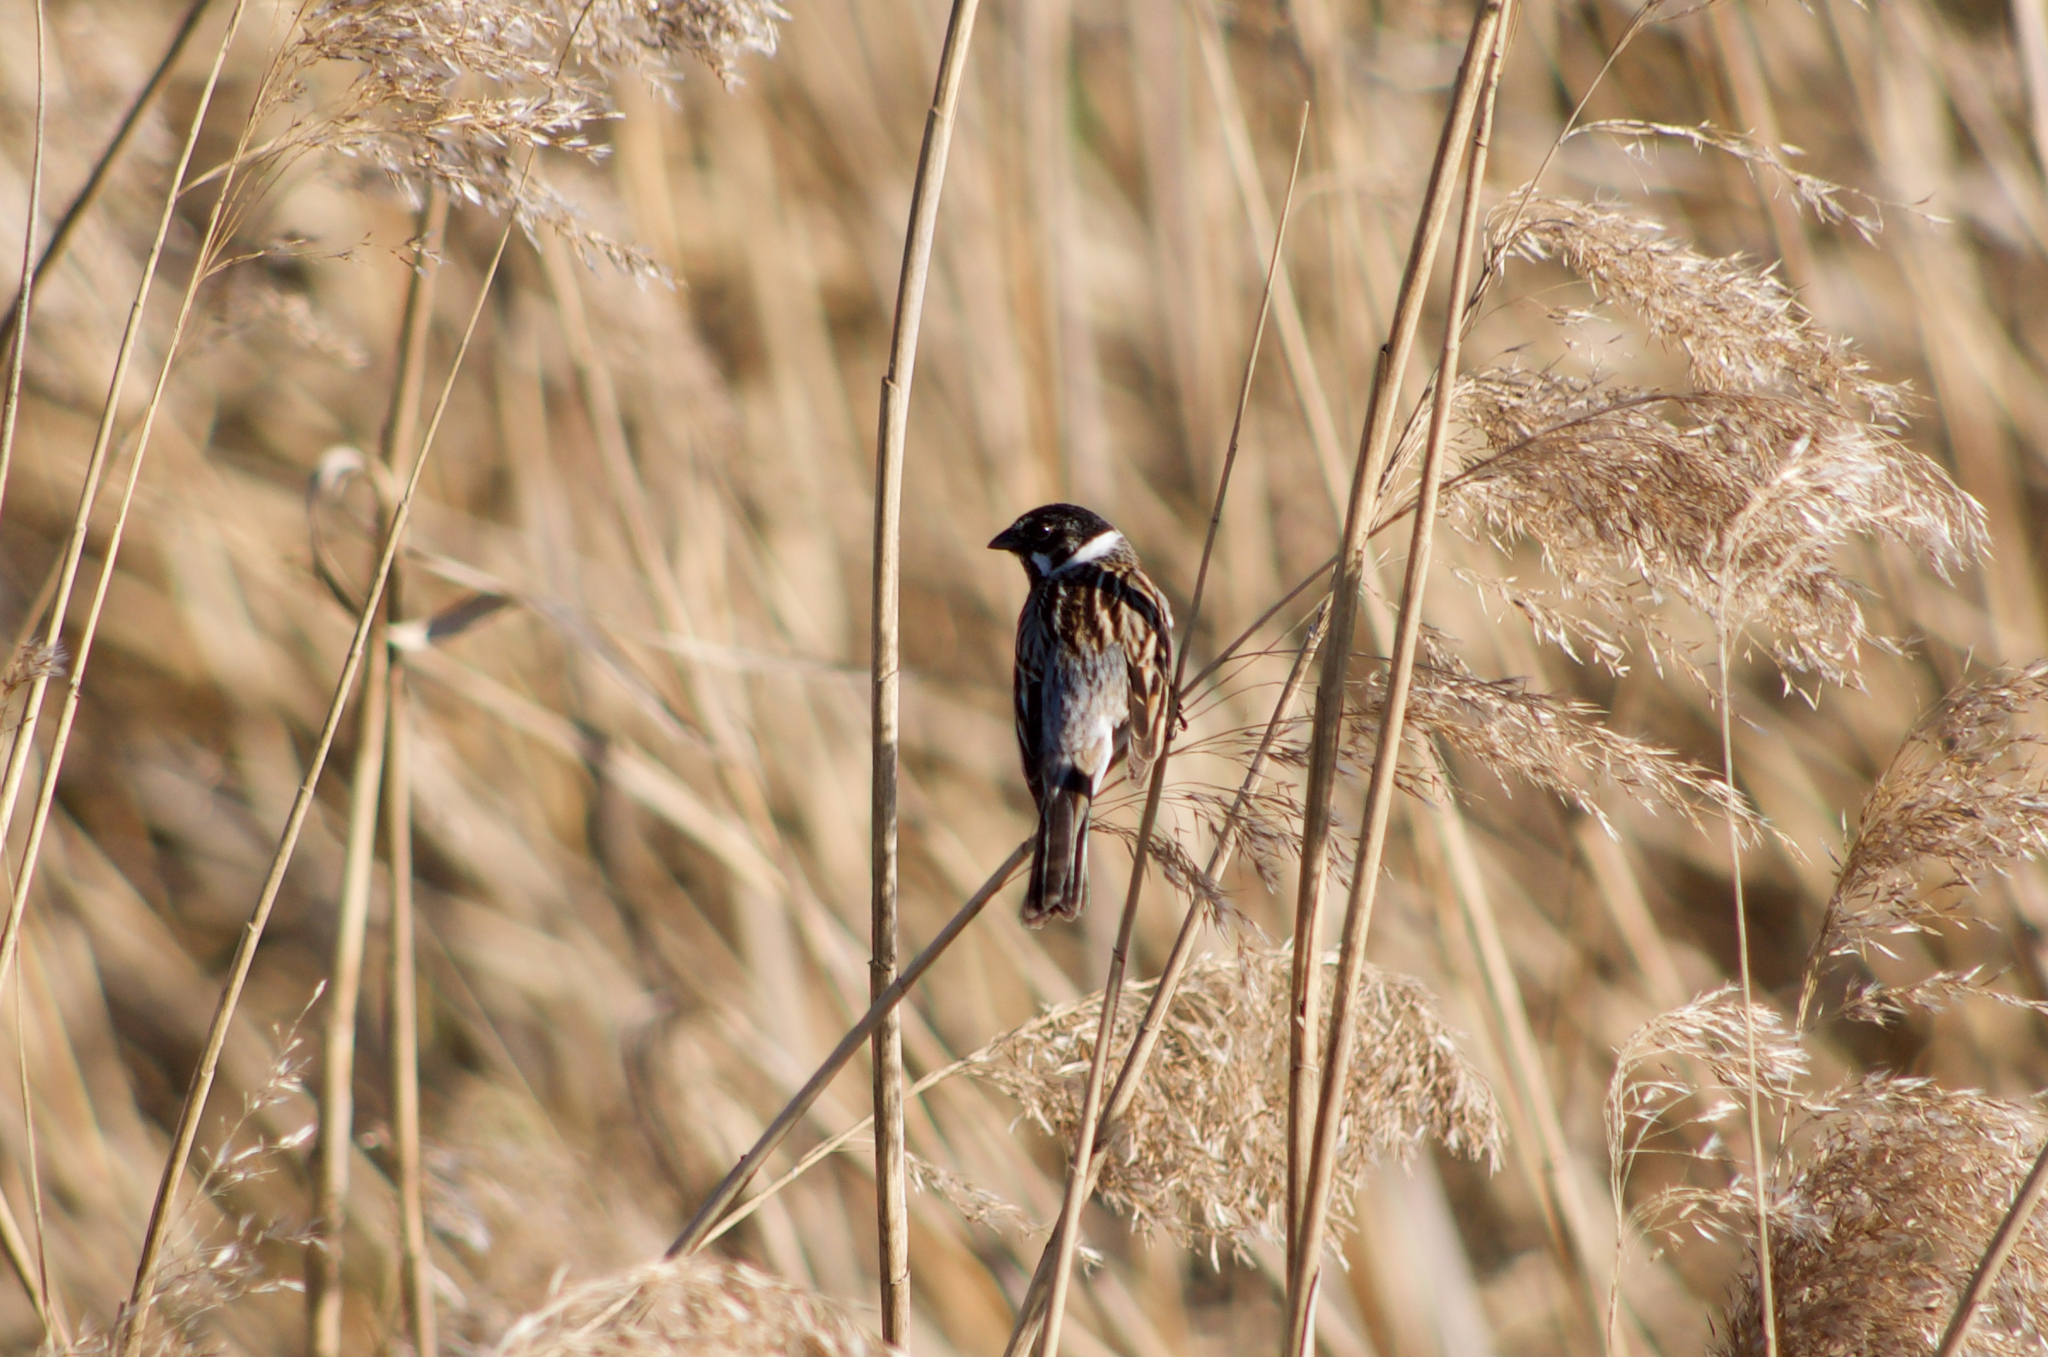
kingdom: Animalia
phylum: Chordata
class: Aves
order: Passeriformes
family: Emberizidae
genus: Emberiza
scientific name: Emberiza schoeniclus
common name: Reed bunting
